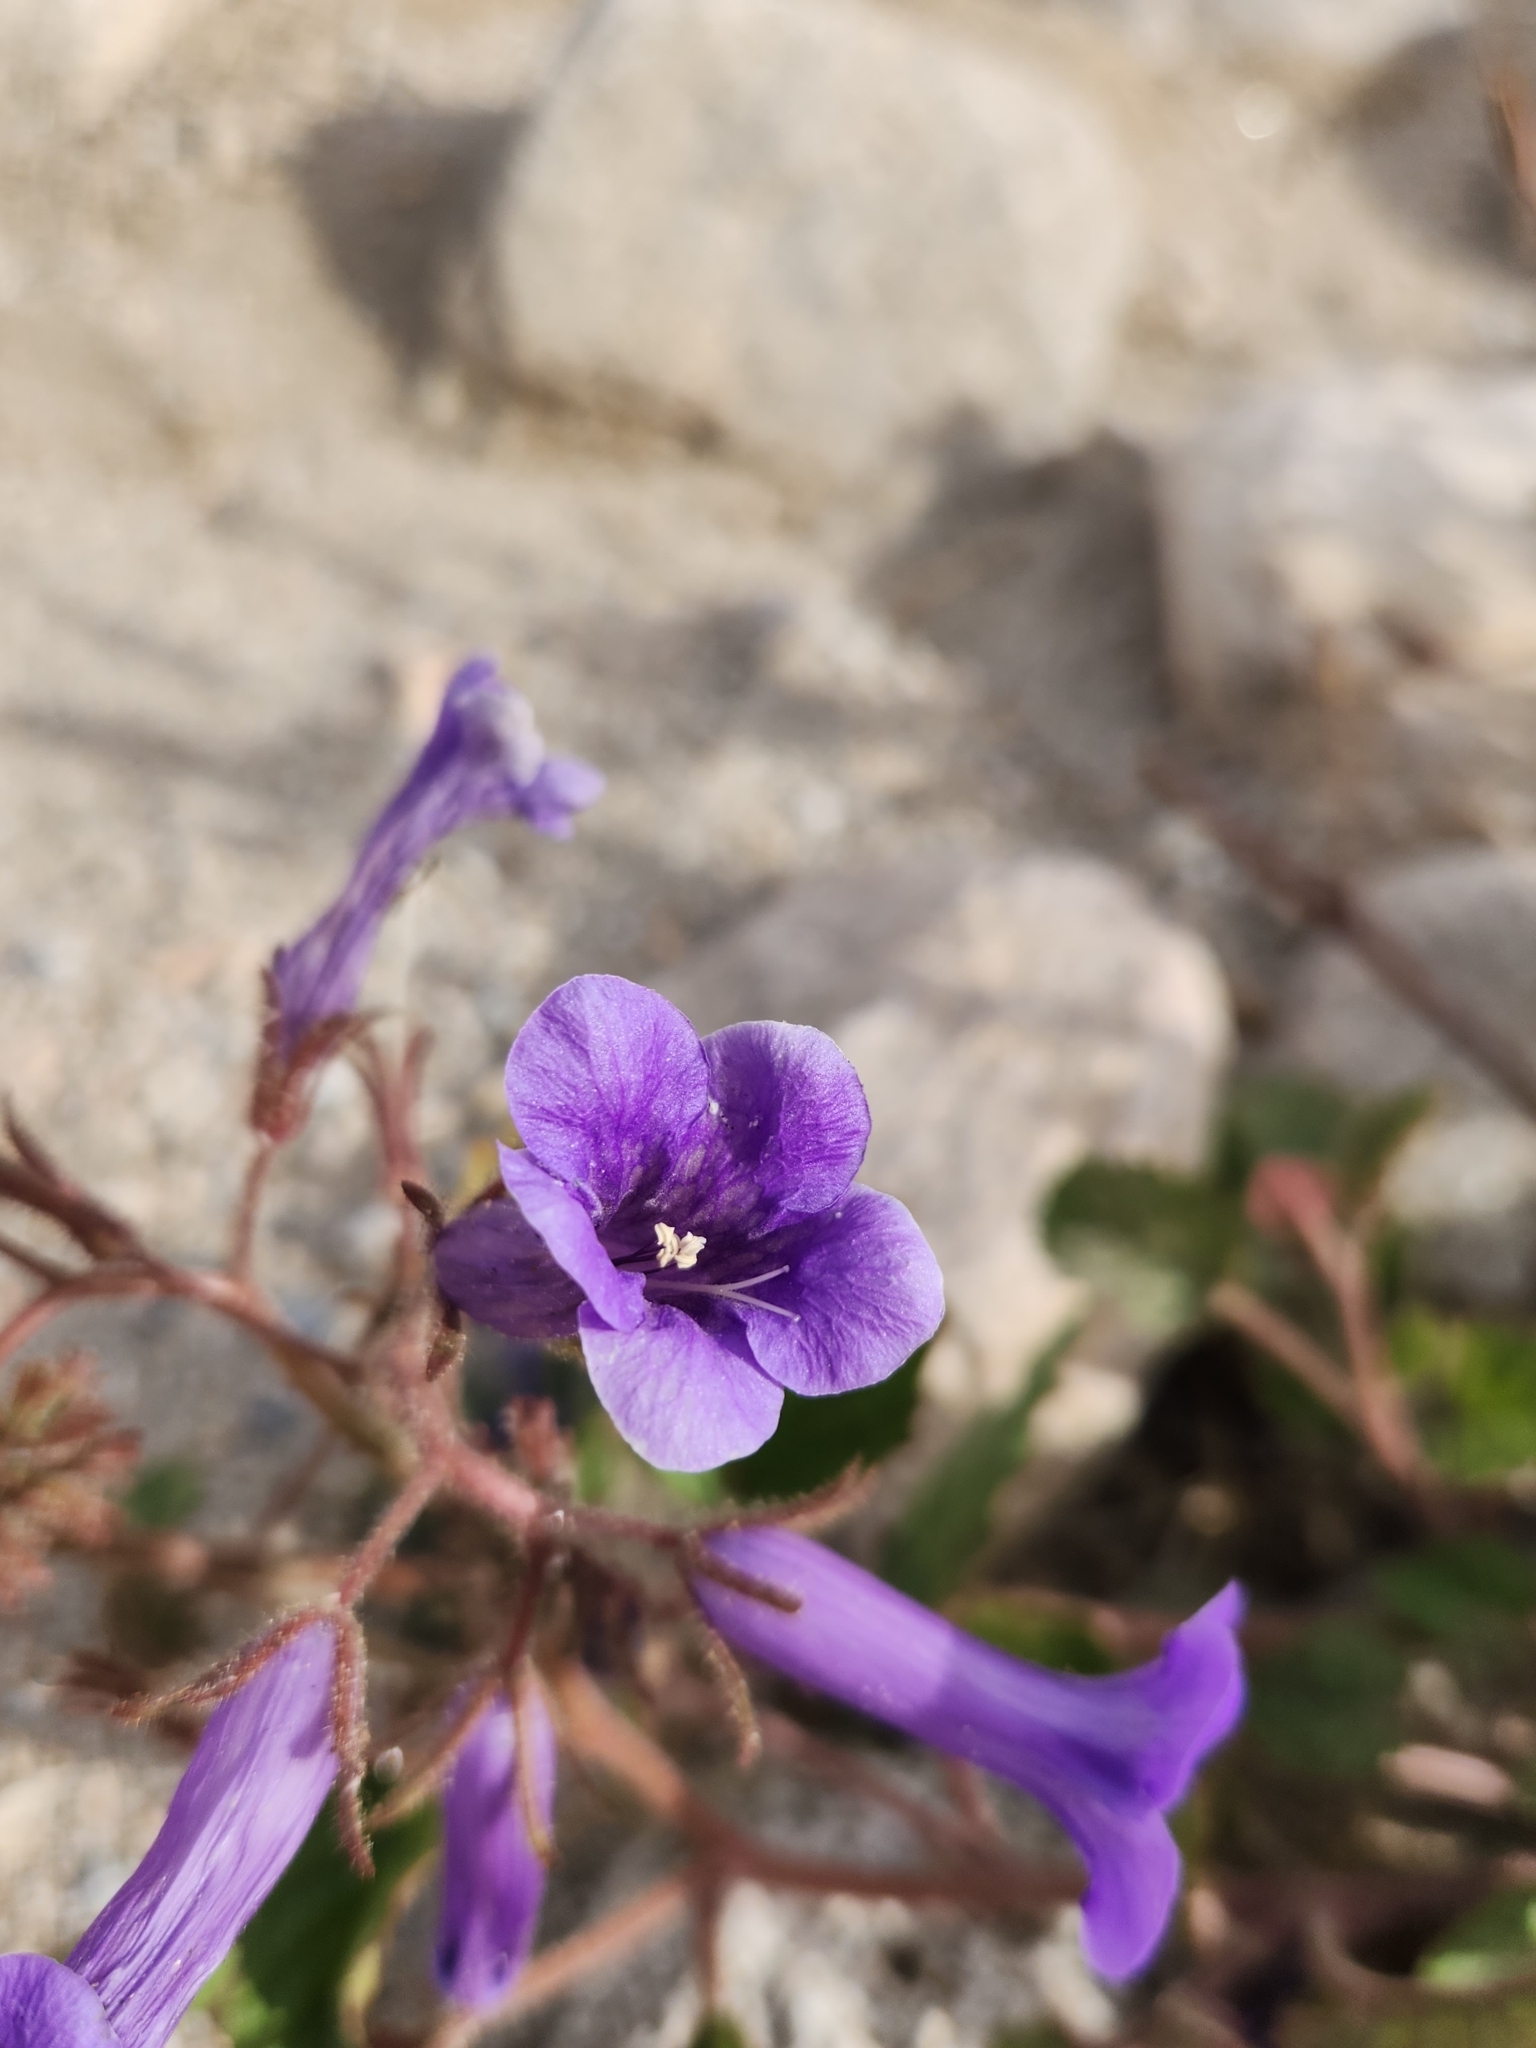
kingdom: Plantae
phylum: Tracheophyta
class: Magnoliopsida
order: Boraginales
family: Hydrophyllaceae
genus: Phacelia
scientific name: Phacelia minor
